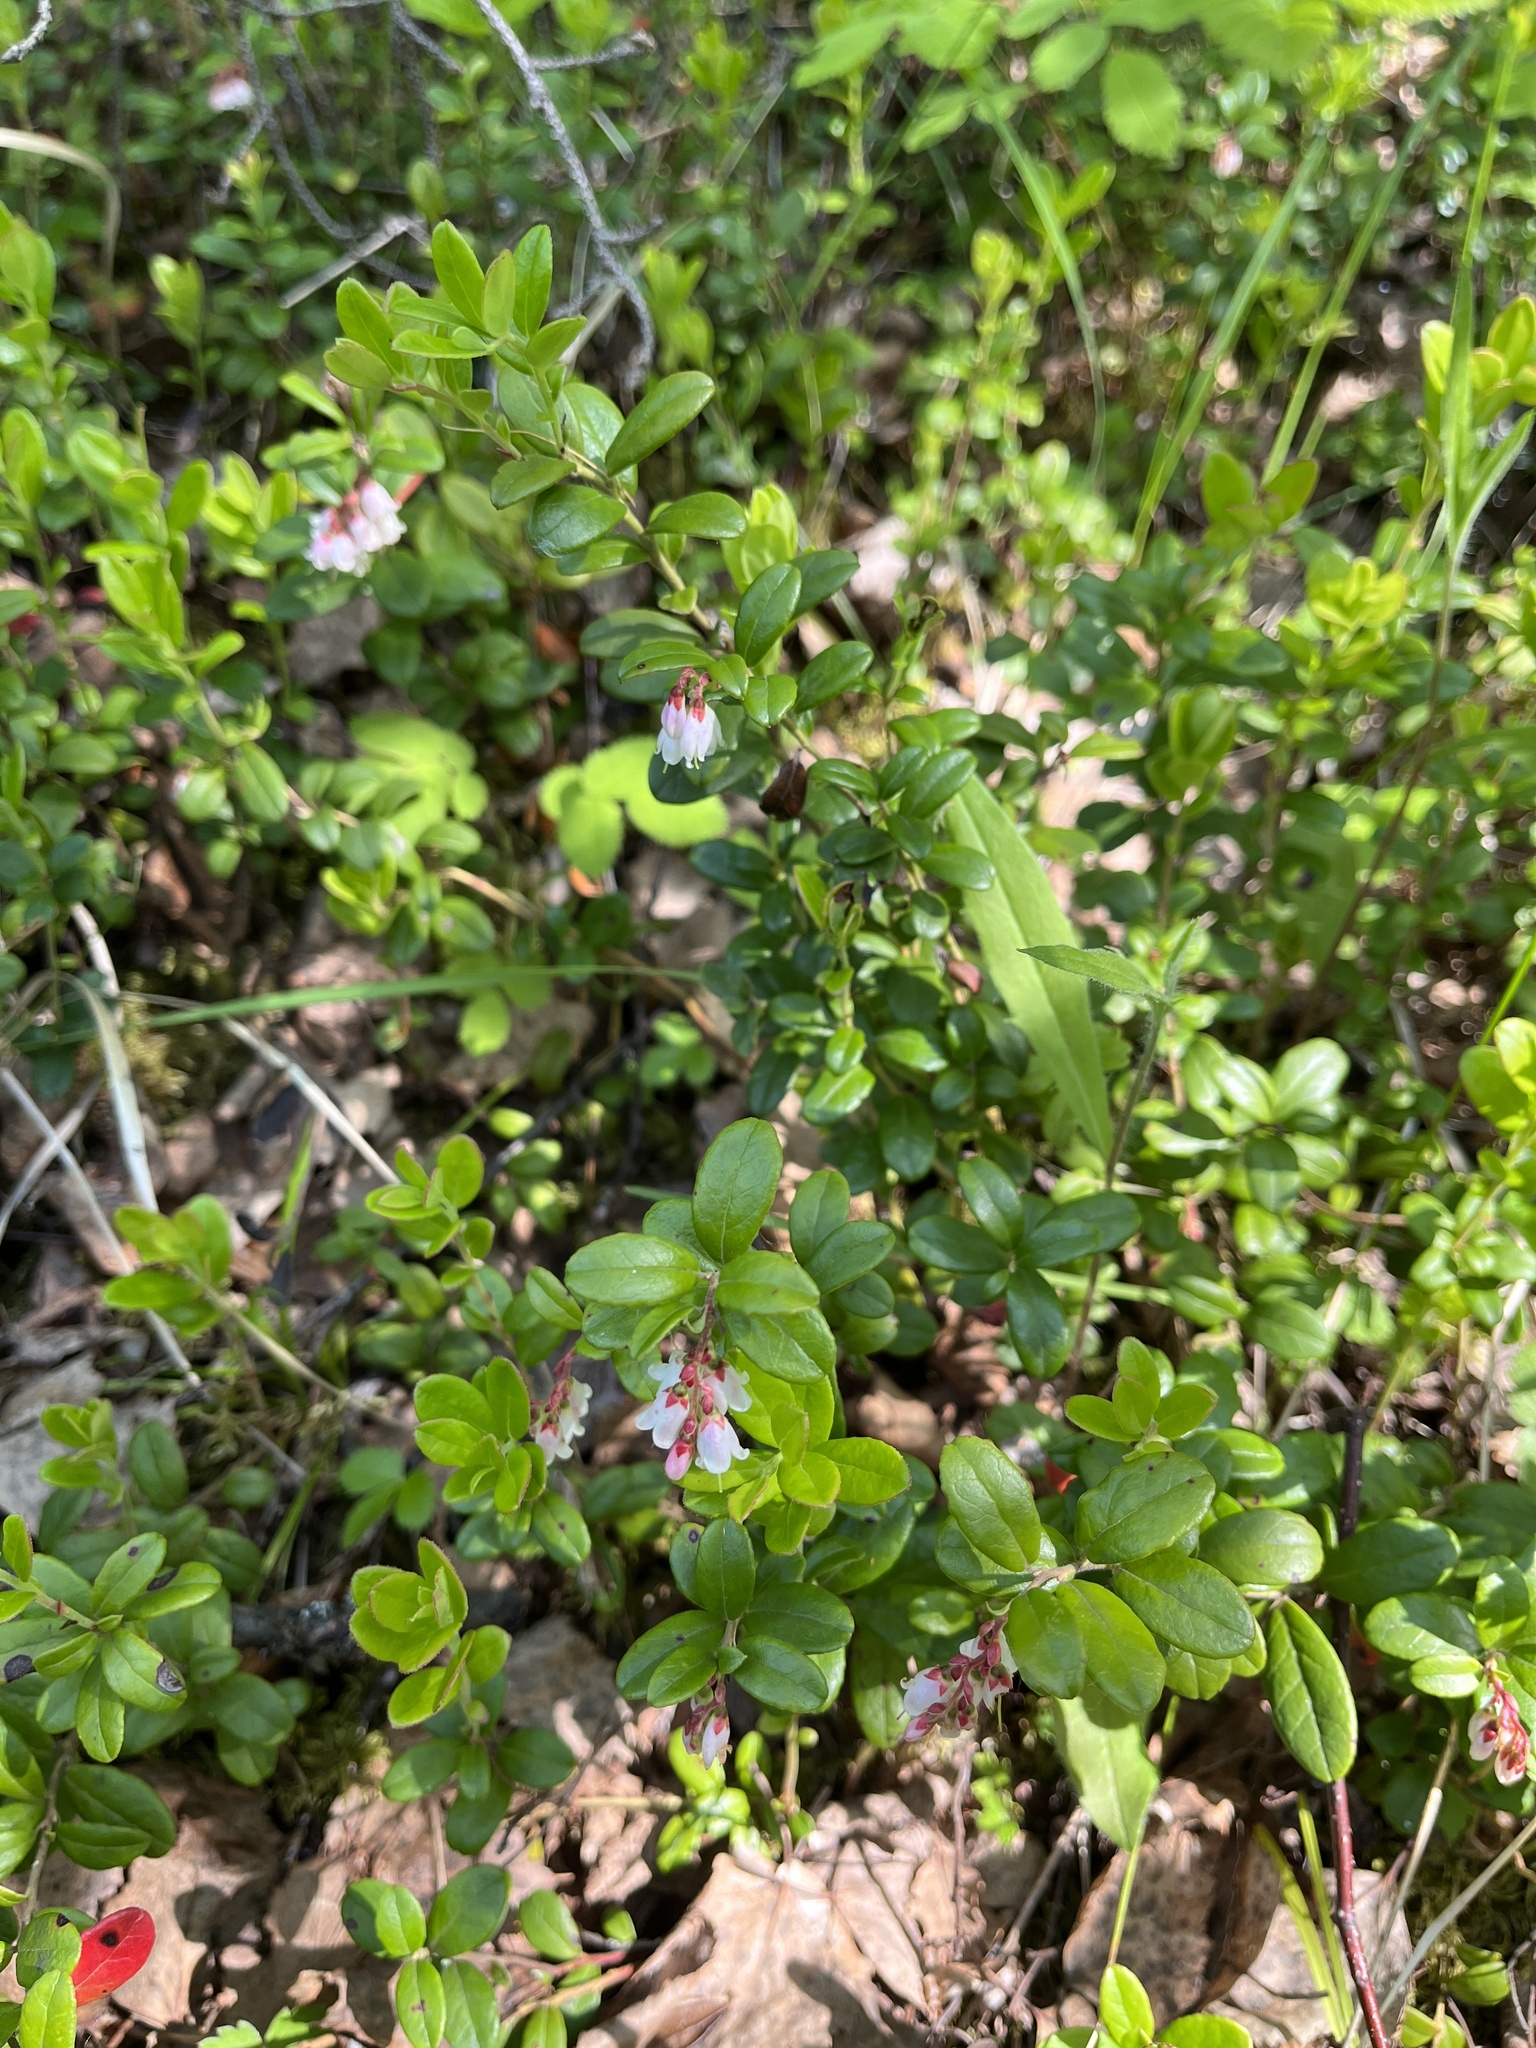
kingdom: Plantae
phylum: Tracheophyta
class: Magnoliopsida
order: Ericales
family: Ericaceae
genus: Vaccinium
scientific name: Vaccinium vitis-idaea
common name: Cowberry
